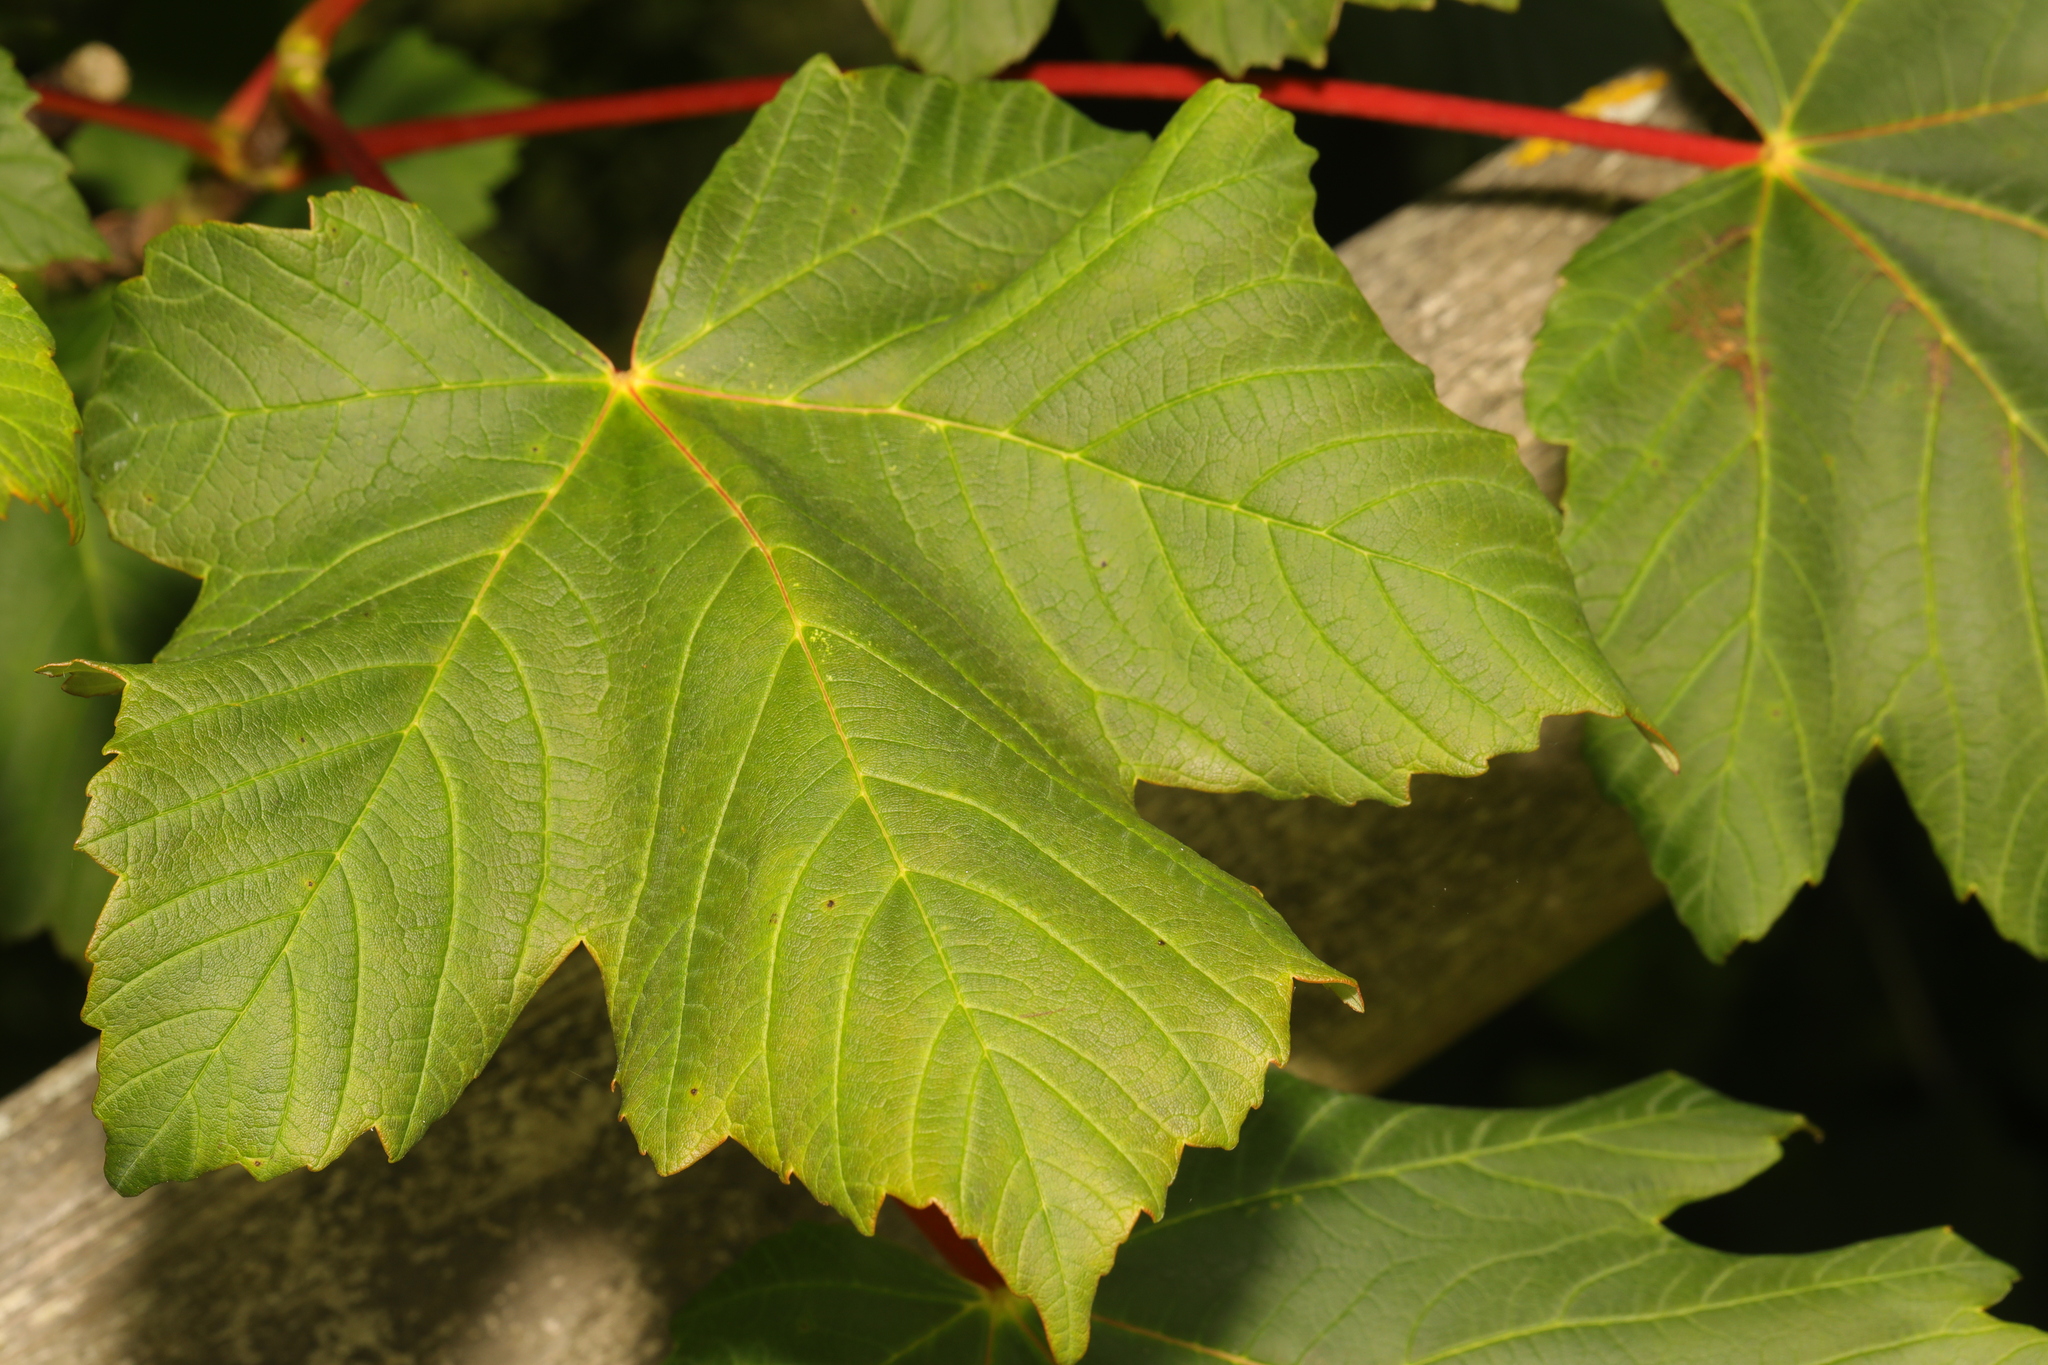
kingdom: Plantae
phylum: Tracheophyta
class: Magnoliopsida
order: Sapindales
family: Sapindaceae
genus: Acer
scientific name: Acer pseudoplatanus
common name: Sycamore
